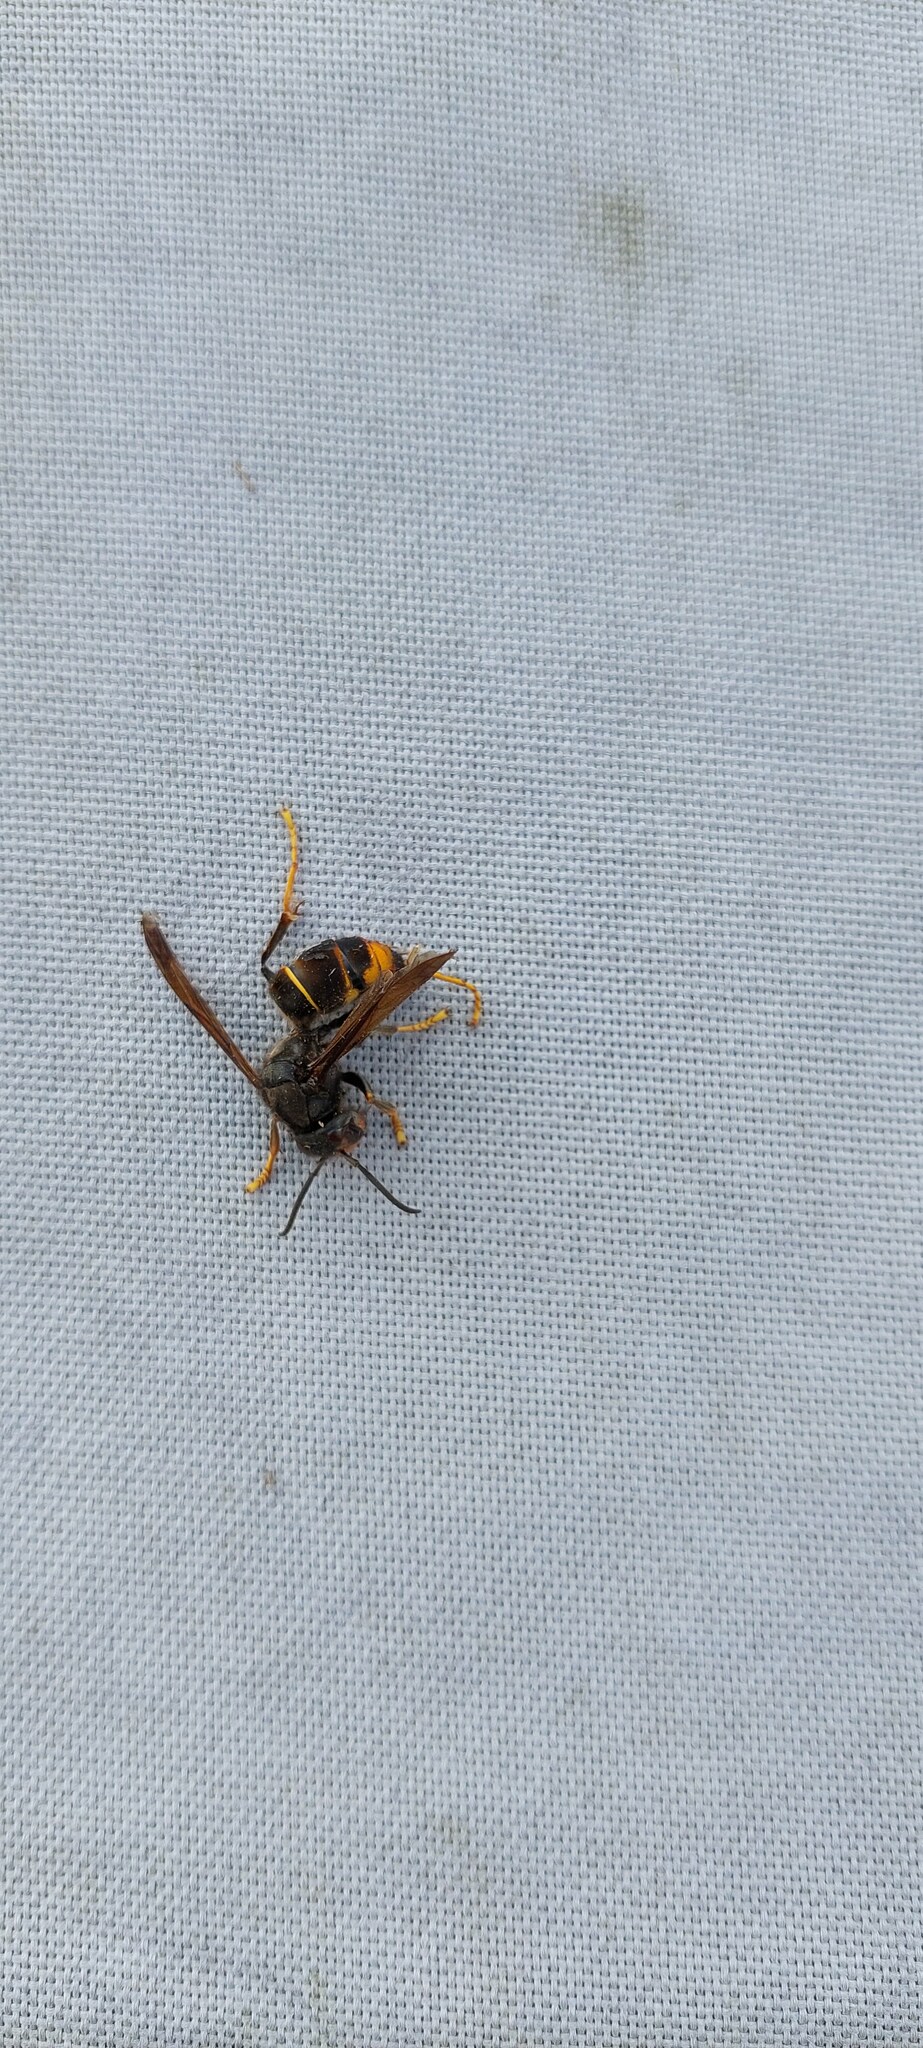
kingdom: Animalia
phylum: Arthropoda
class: Insecta
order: Hymenoptera
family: Vespidae
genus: Vespa
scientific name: Vespa velutina
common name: Asian hornet
